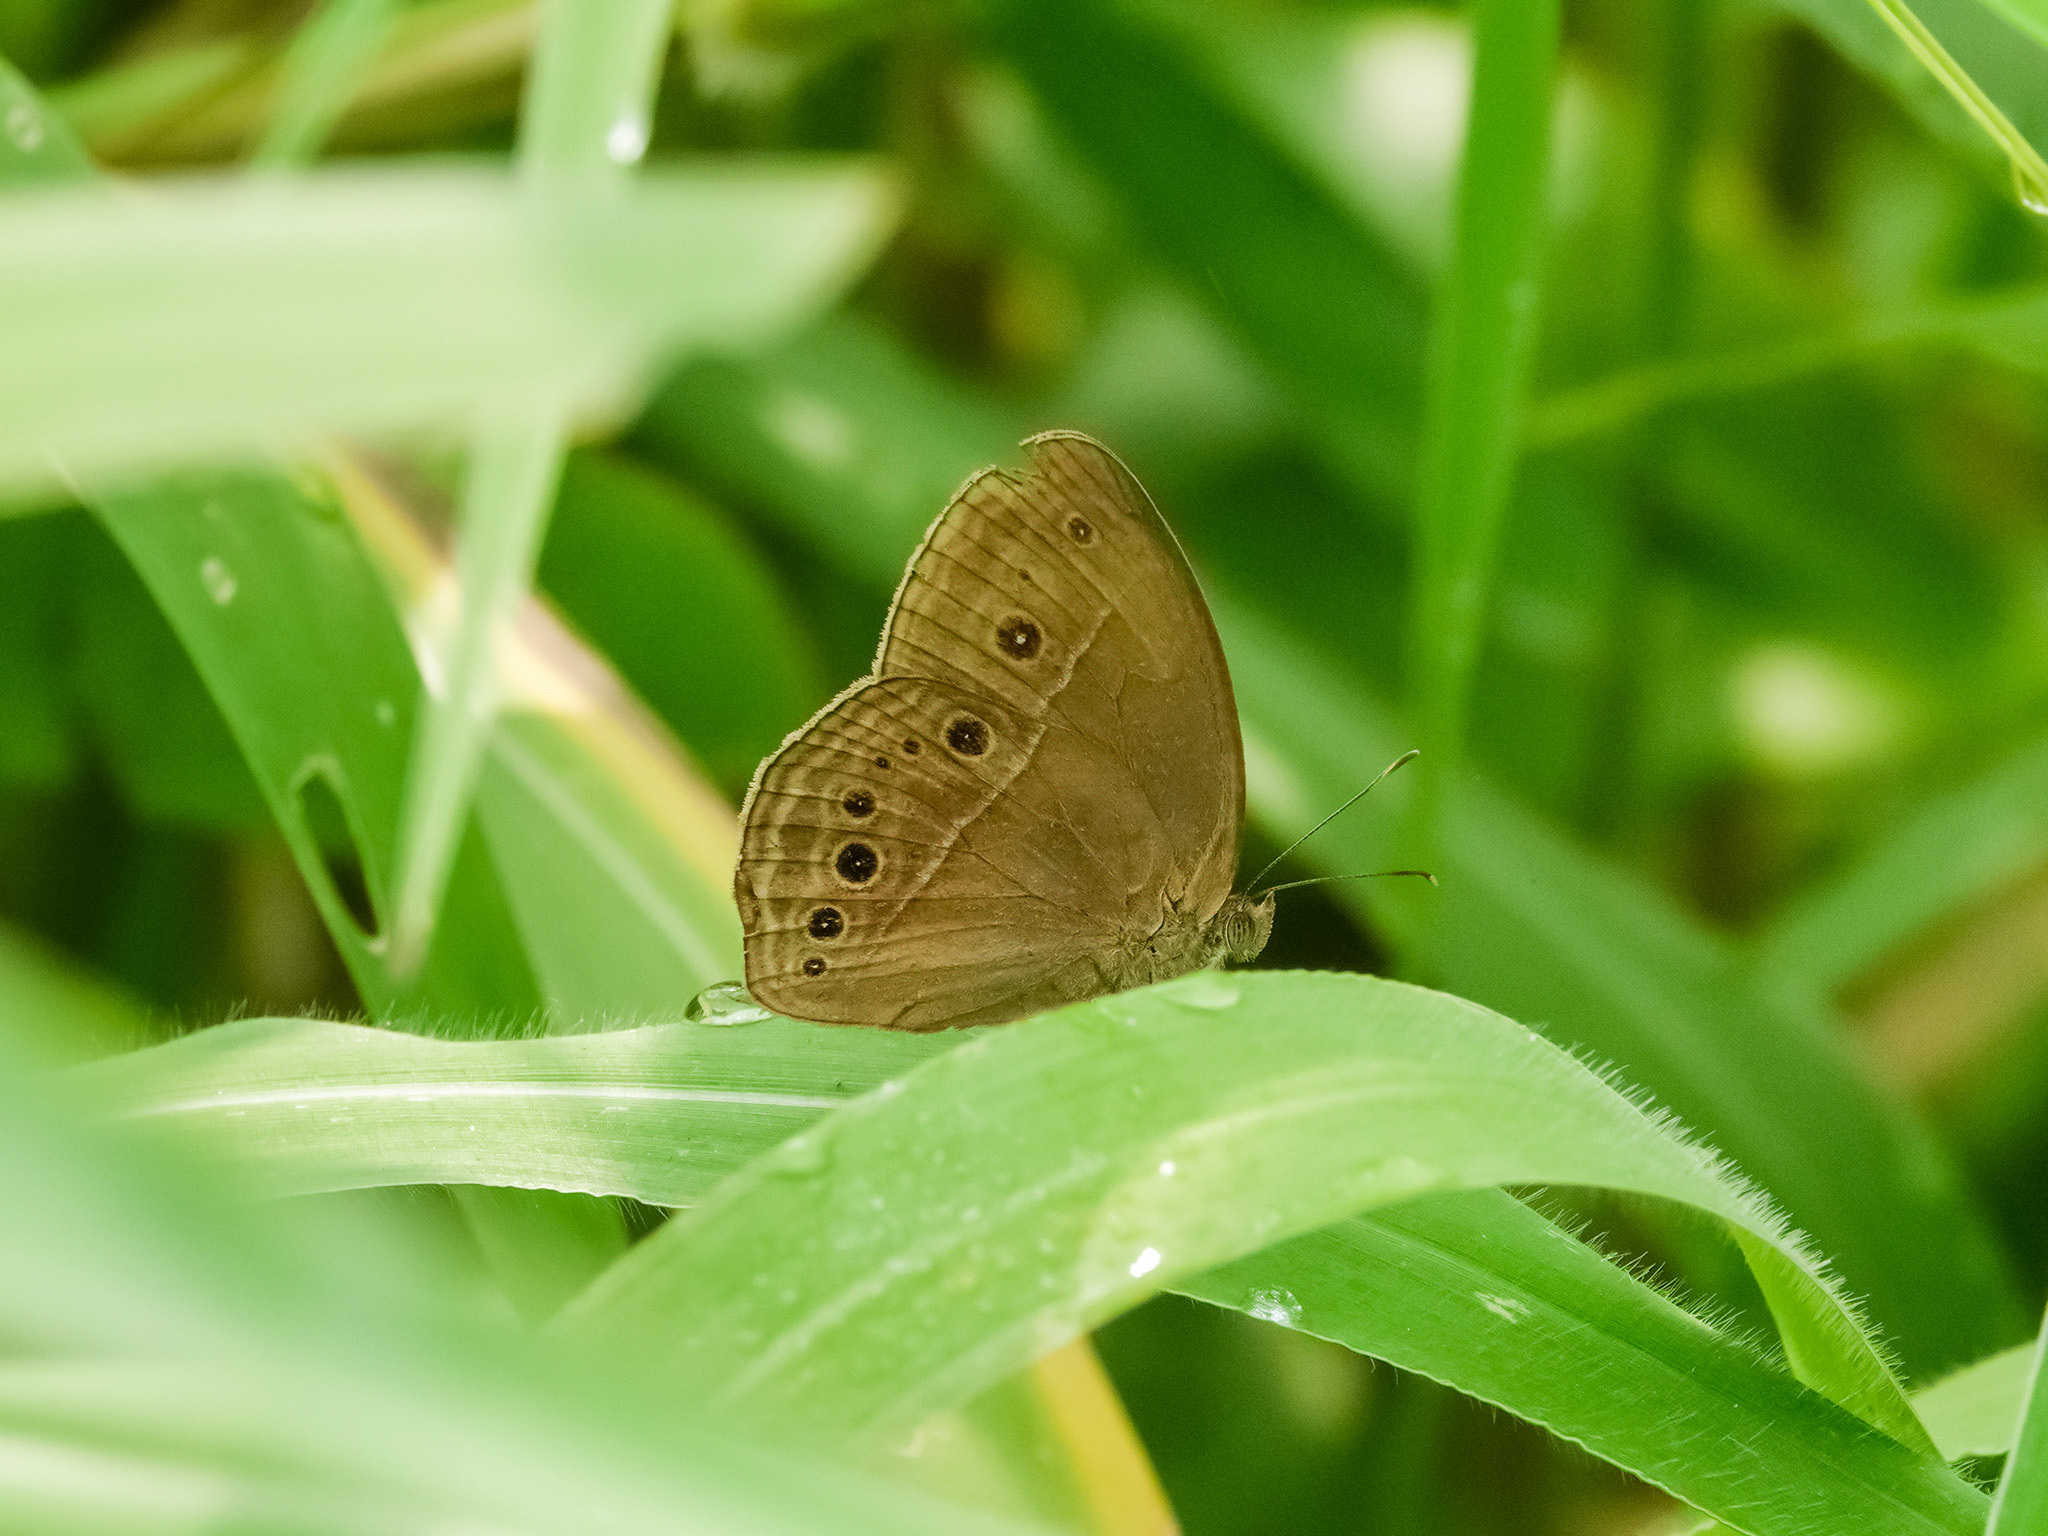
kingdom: Animalia
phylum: Arthropoda
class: Insecta
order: Lepidoptera
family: Nymphalidae
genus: Mycalesis
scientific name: Mycalesis perseus
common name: Dingy bushbrown
